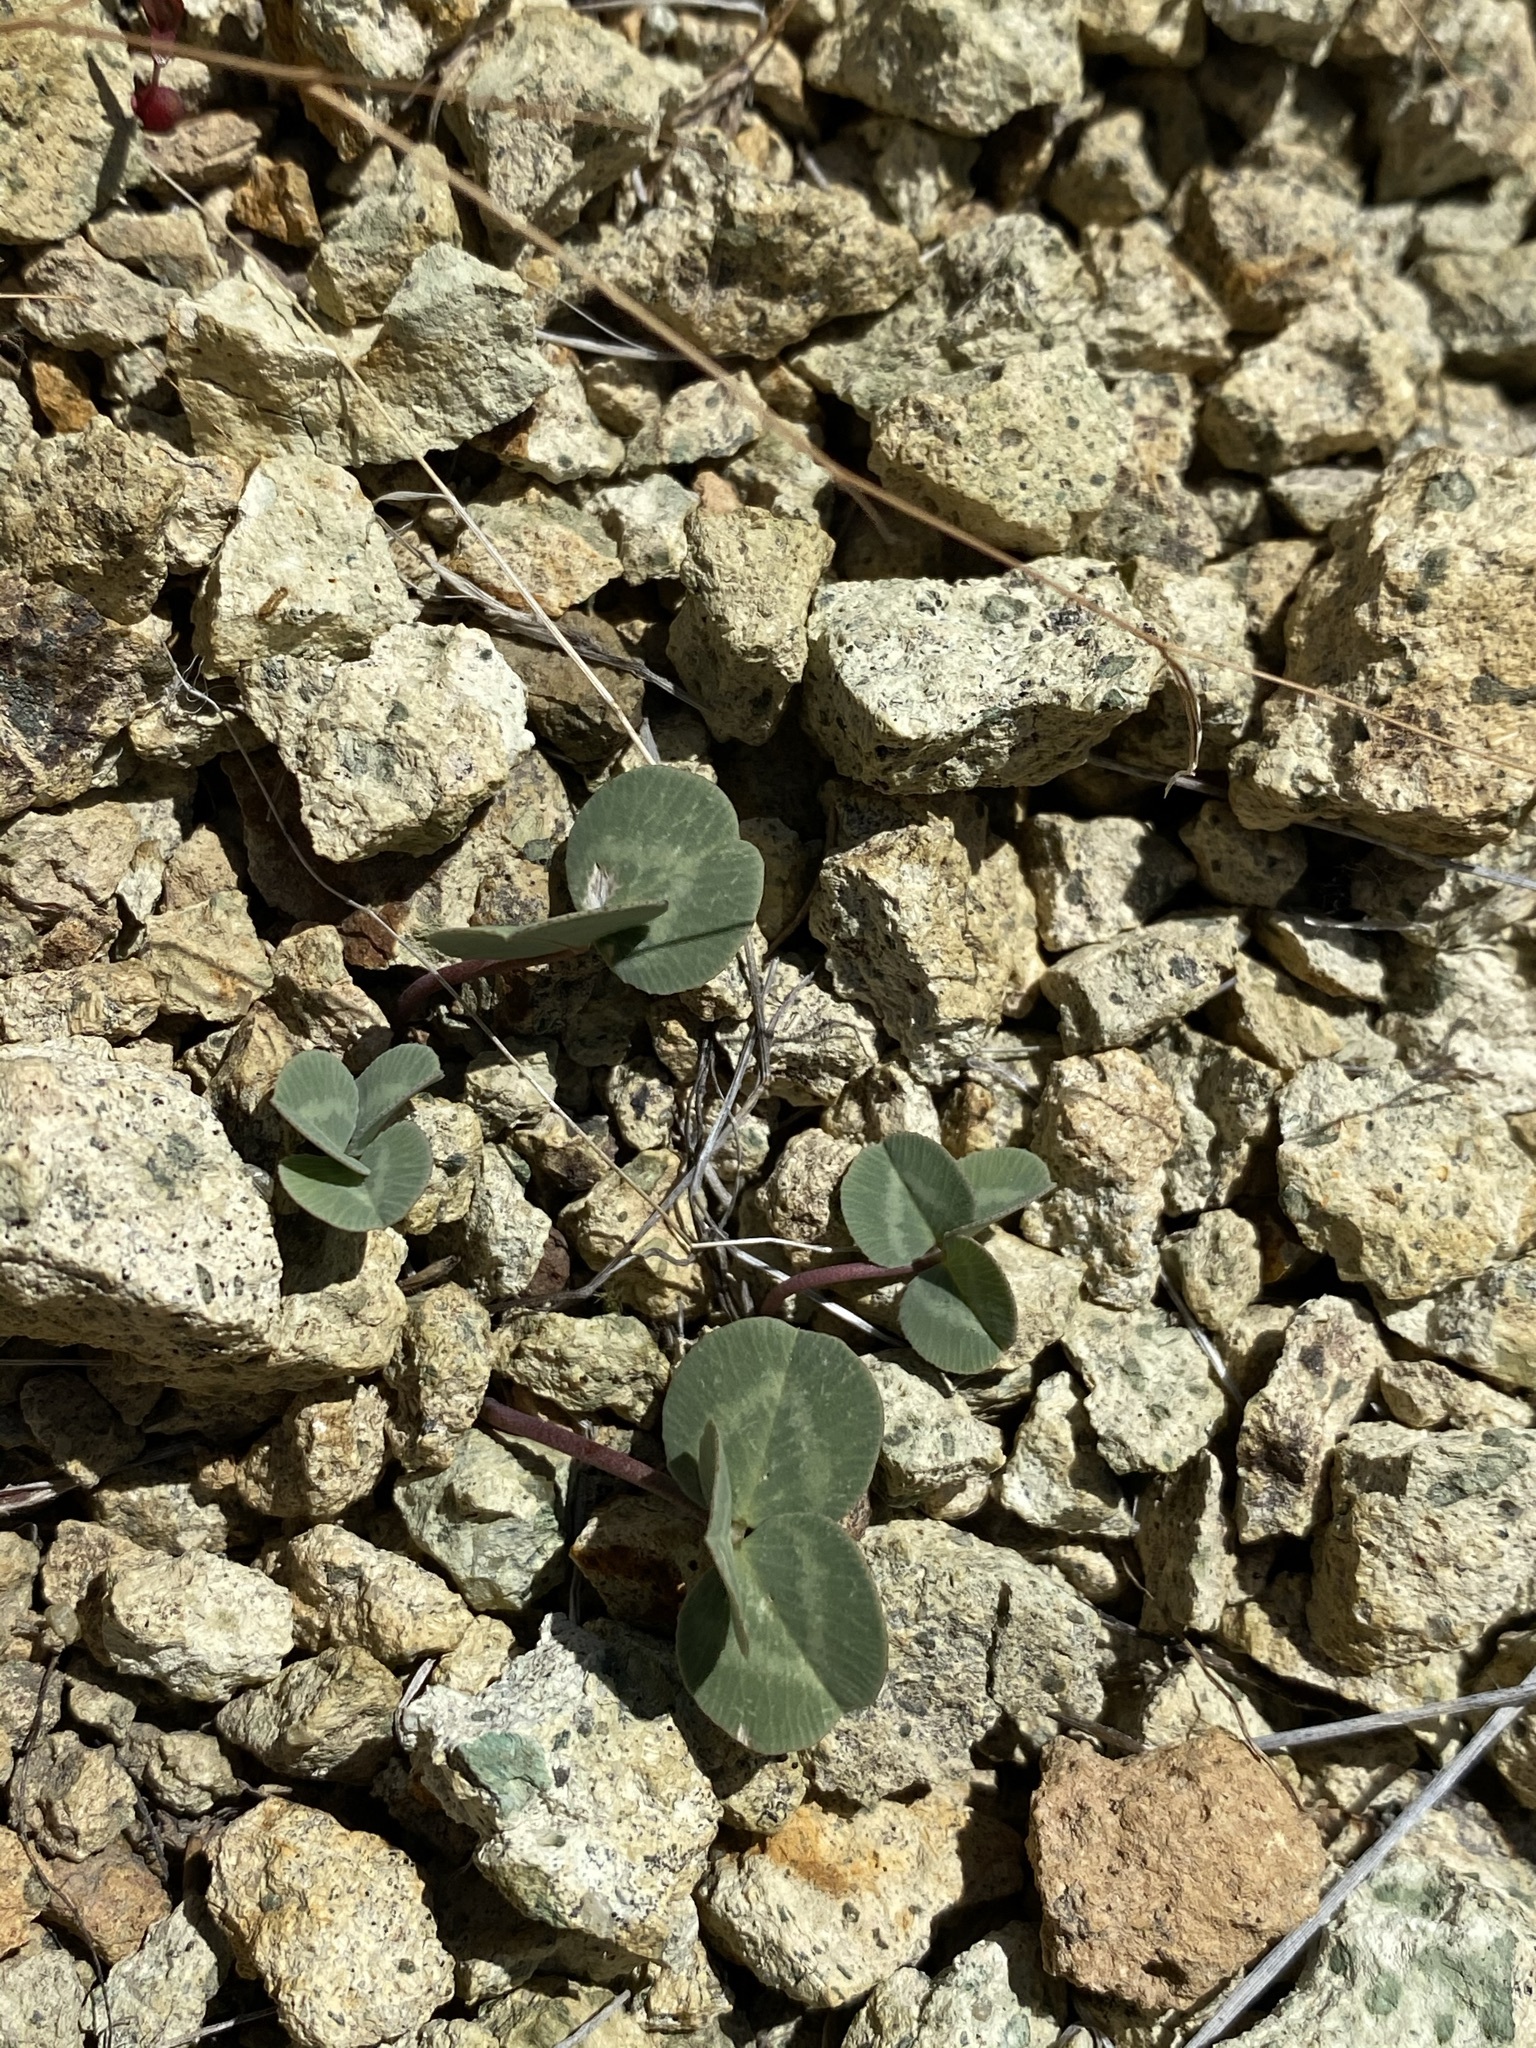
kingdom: Plantae
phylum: Tracheophyta
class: Magnoliopsida
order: Fabales
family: Fabaceae
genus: Trifolium
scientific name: Trifolium owyheense
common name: Owyhee clover
